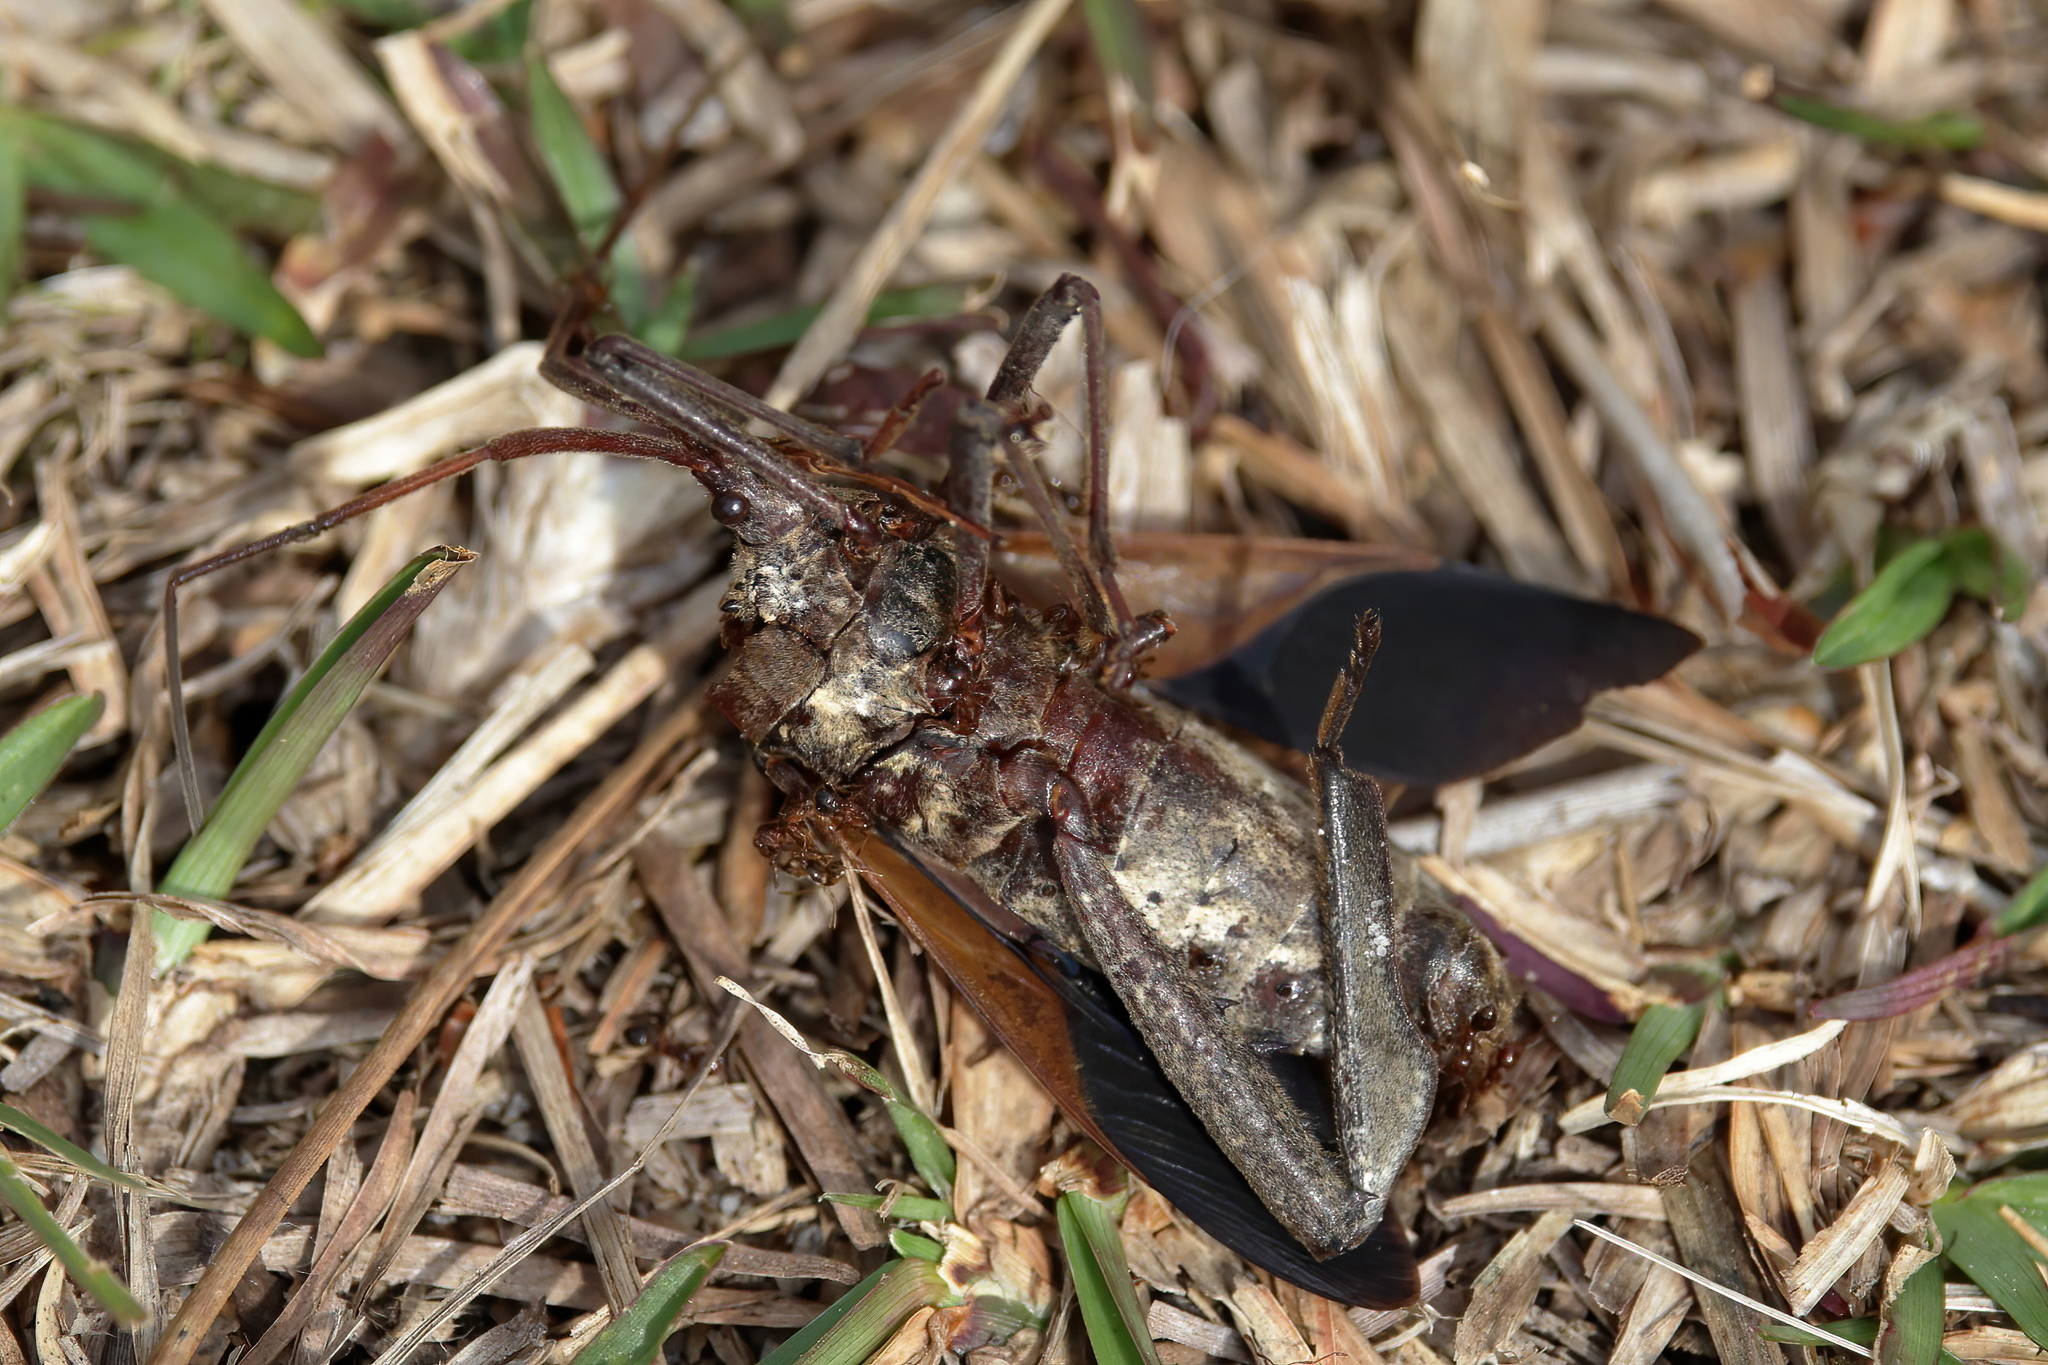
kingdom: Animalia
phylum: Arthropoda
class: Insecta
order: Hemiptera
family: Coreidae
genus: Acanthocephala
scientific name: Acanthocephala declivis
